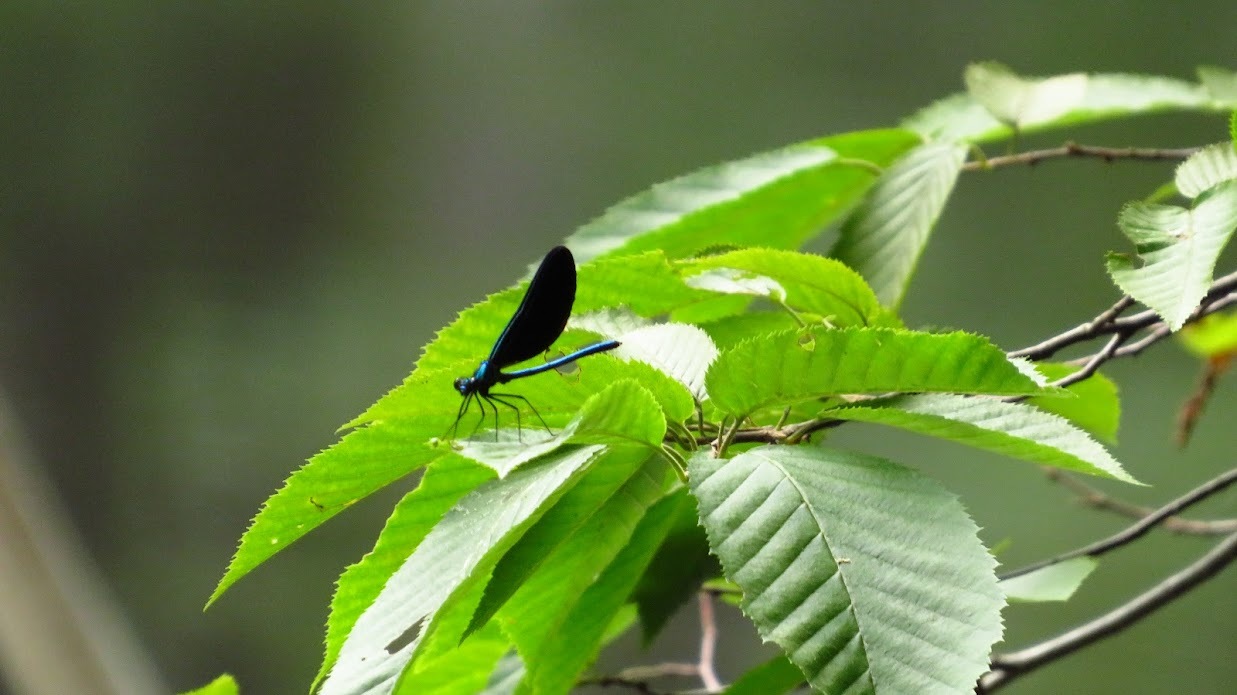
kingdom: Animalia
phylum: Arthropoda
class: Insecta
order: Odonata
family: Calopterygidae
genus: Calopteryx
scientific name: Calopteryx maculata
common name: Ebony jewelwing
